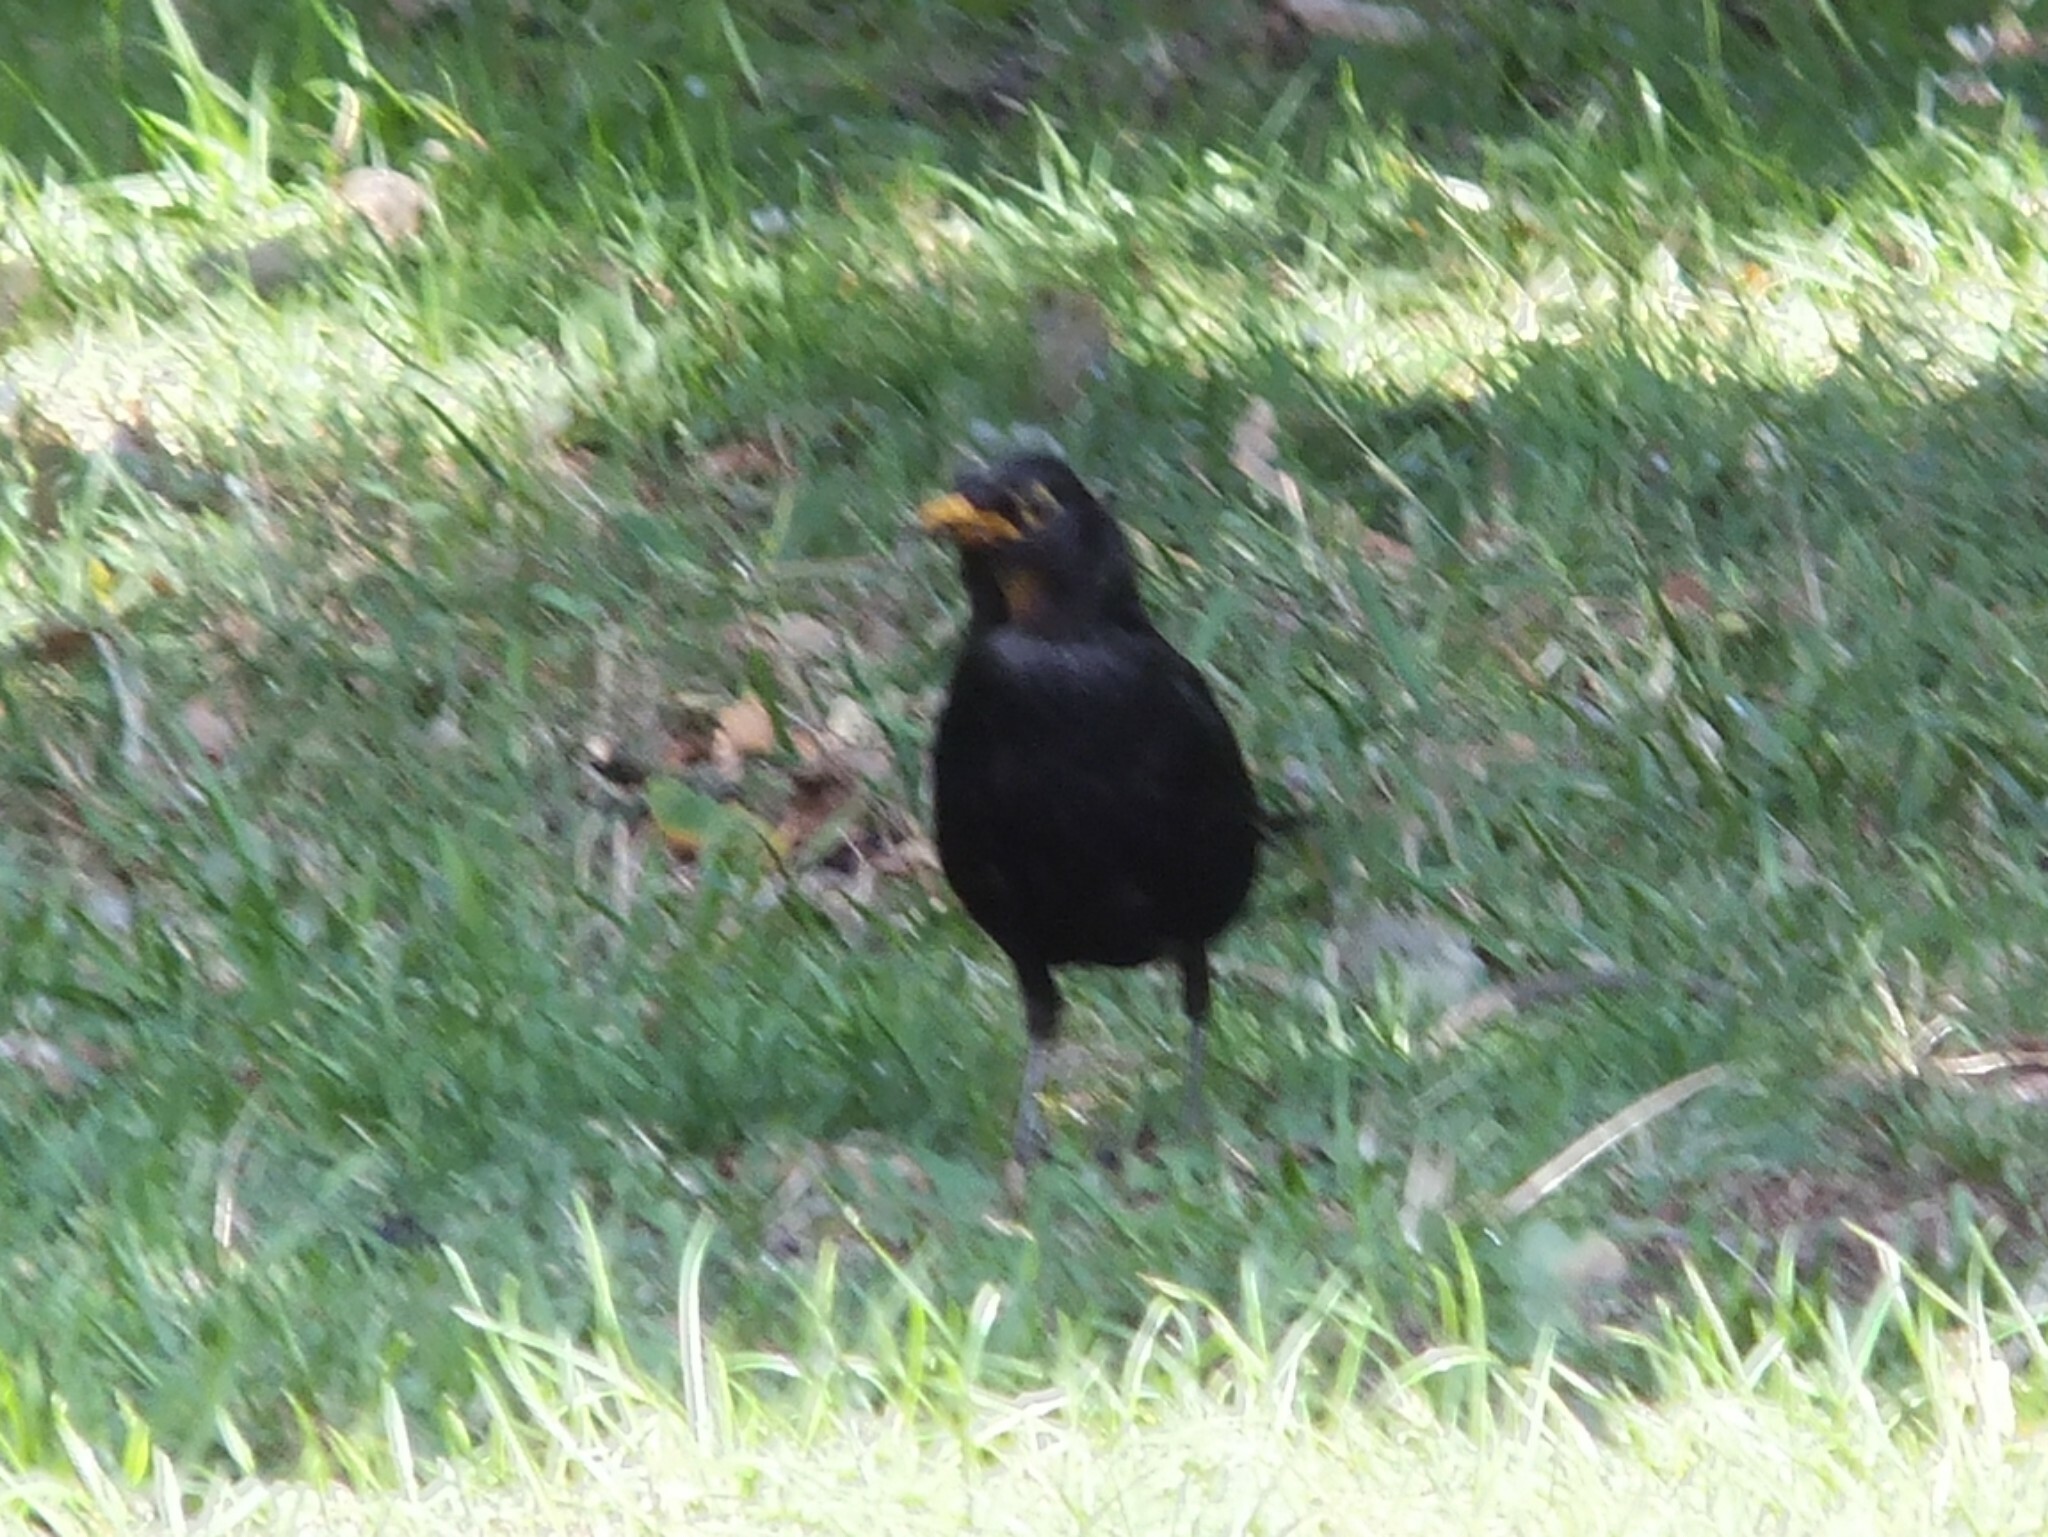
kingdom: Animalia
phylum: Chordata
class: Aves
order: Passeriformes
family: Turdidae
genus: Turdus
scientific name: Turdus merula
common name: Common blackbird
